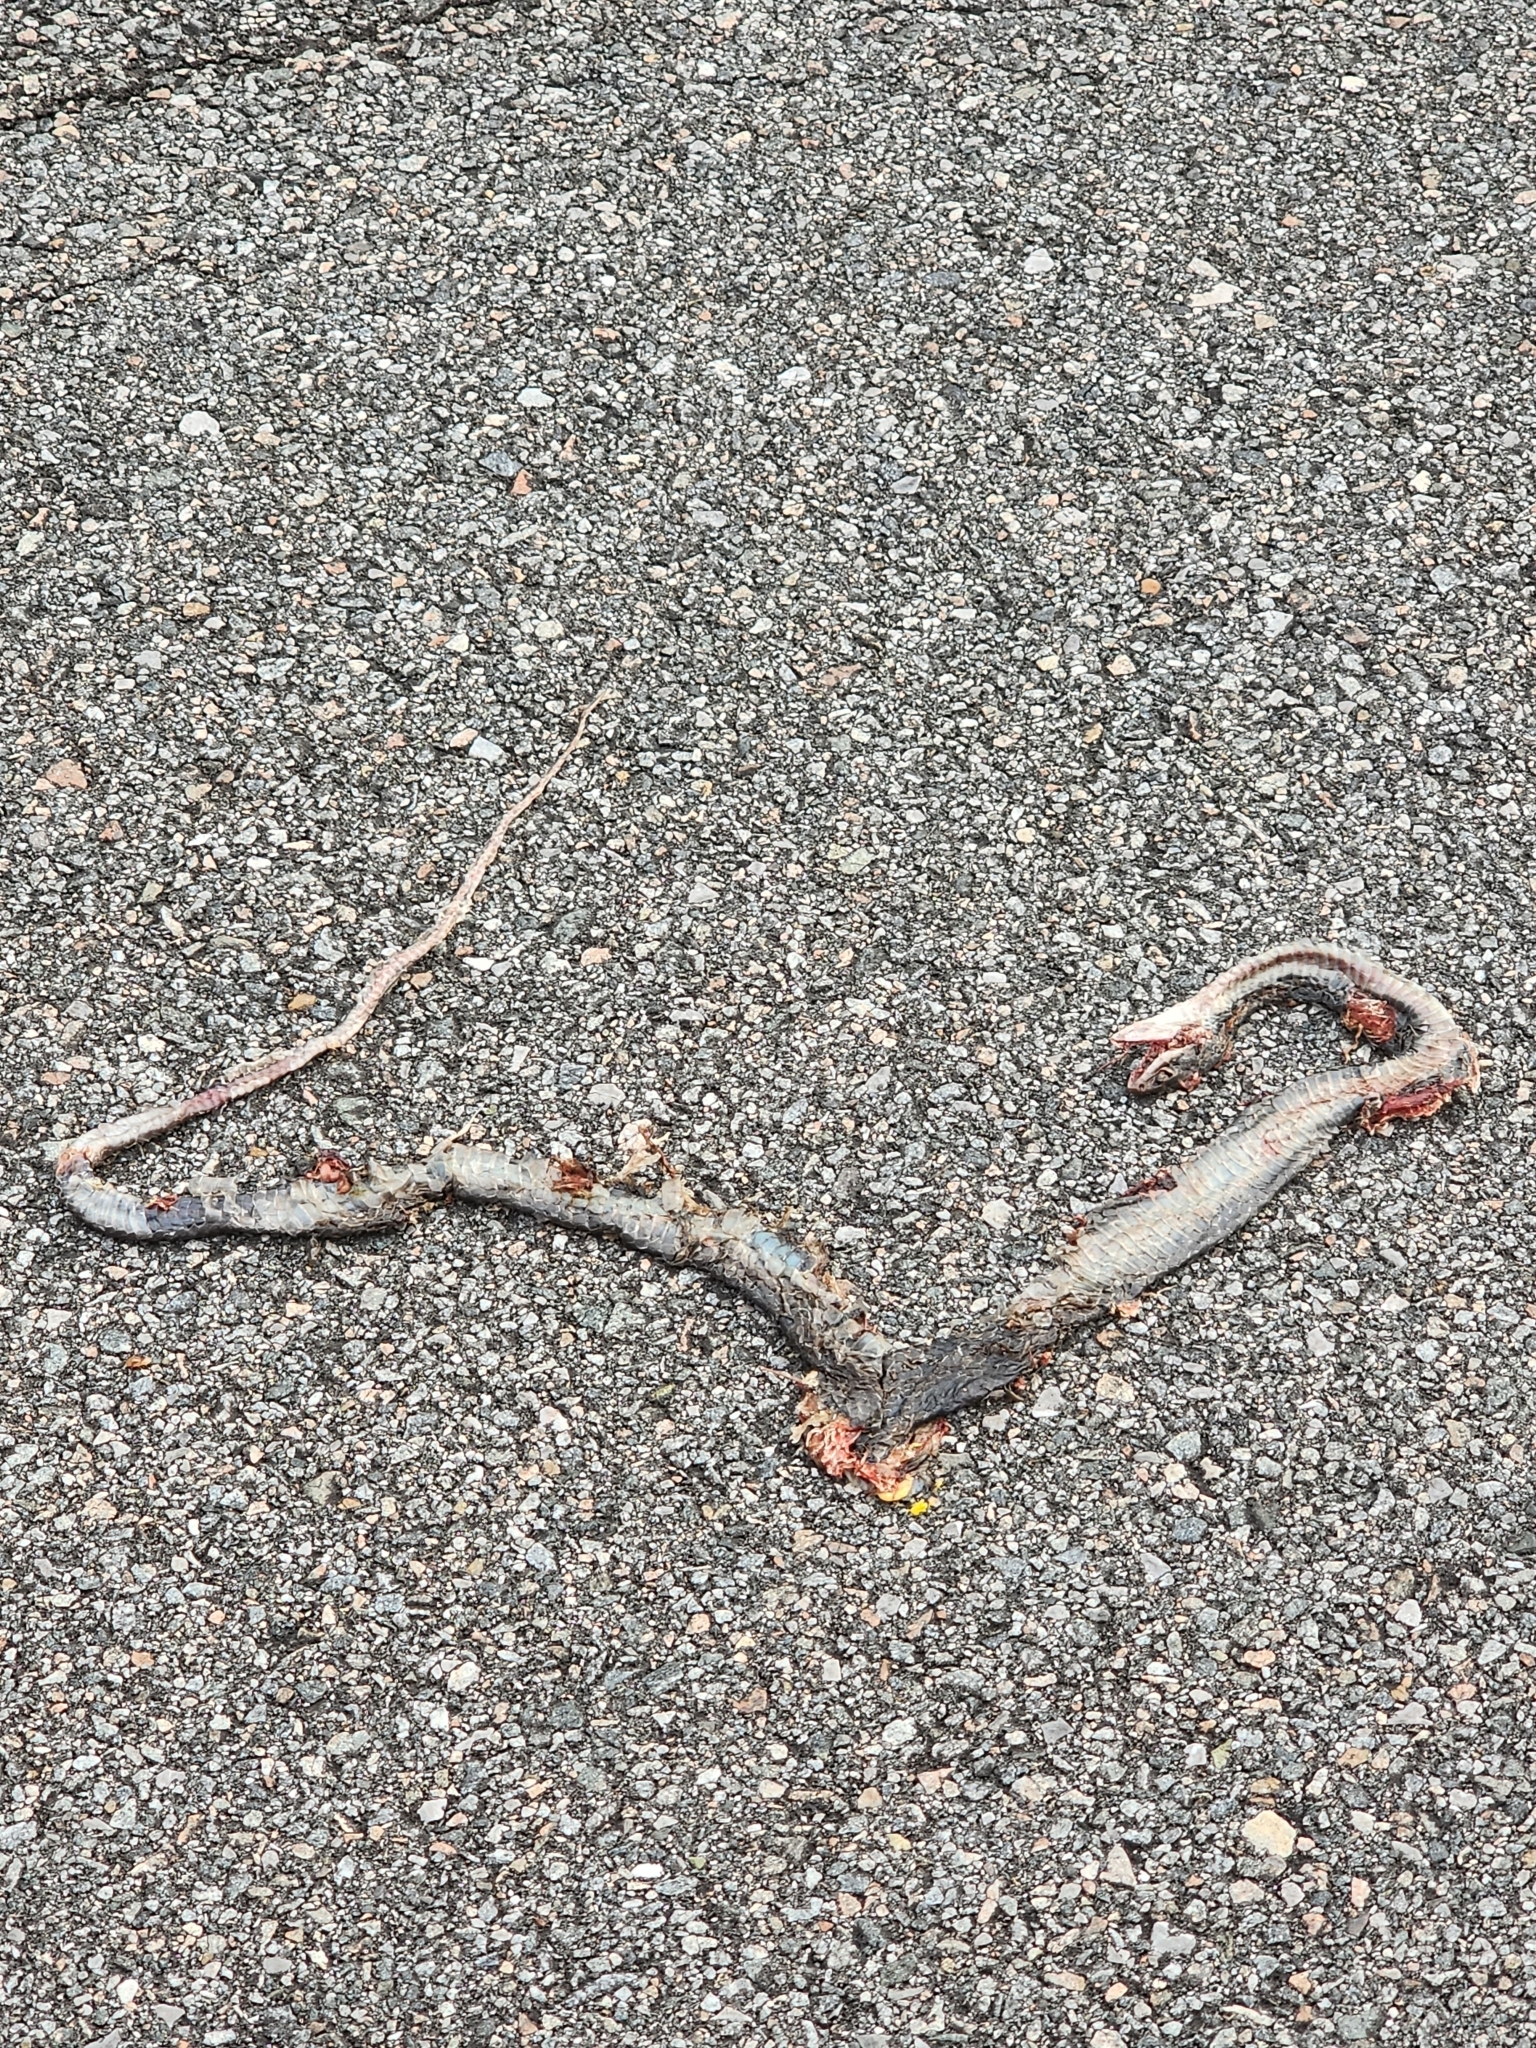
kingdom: Animalia
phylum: Chordata
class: Squamata
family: Colubridae
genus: Coluber
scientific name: Coluber constrictor
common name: Eastern racer
